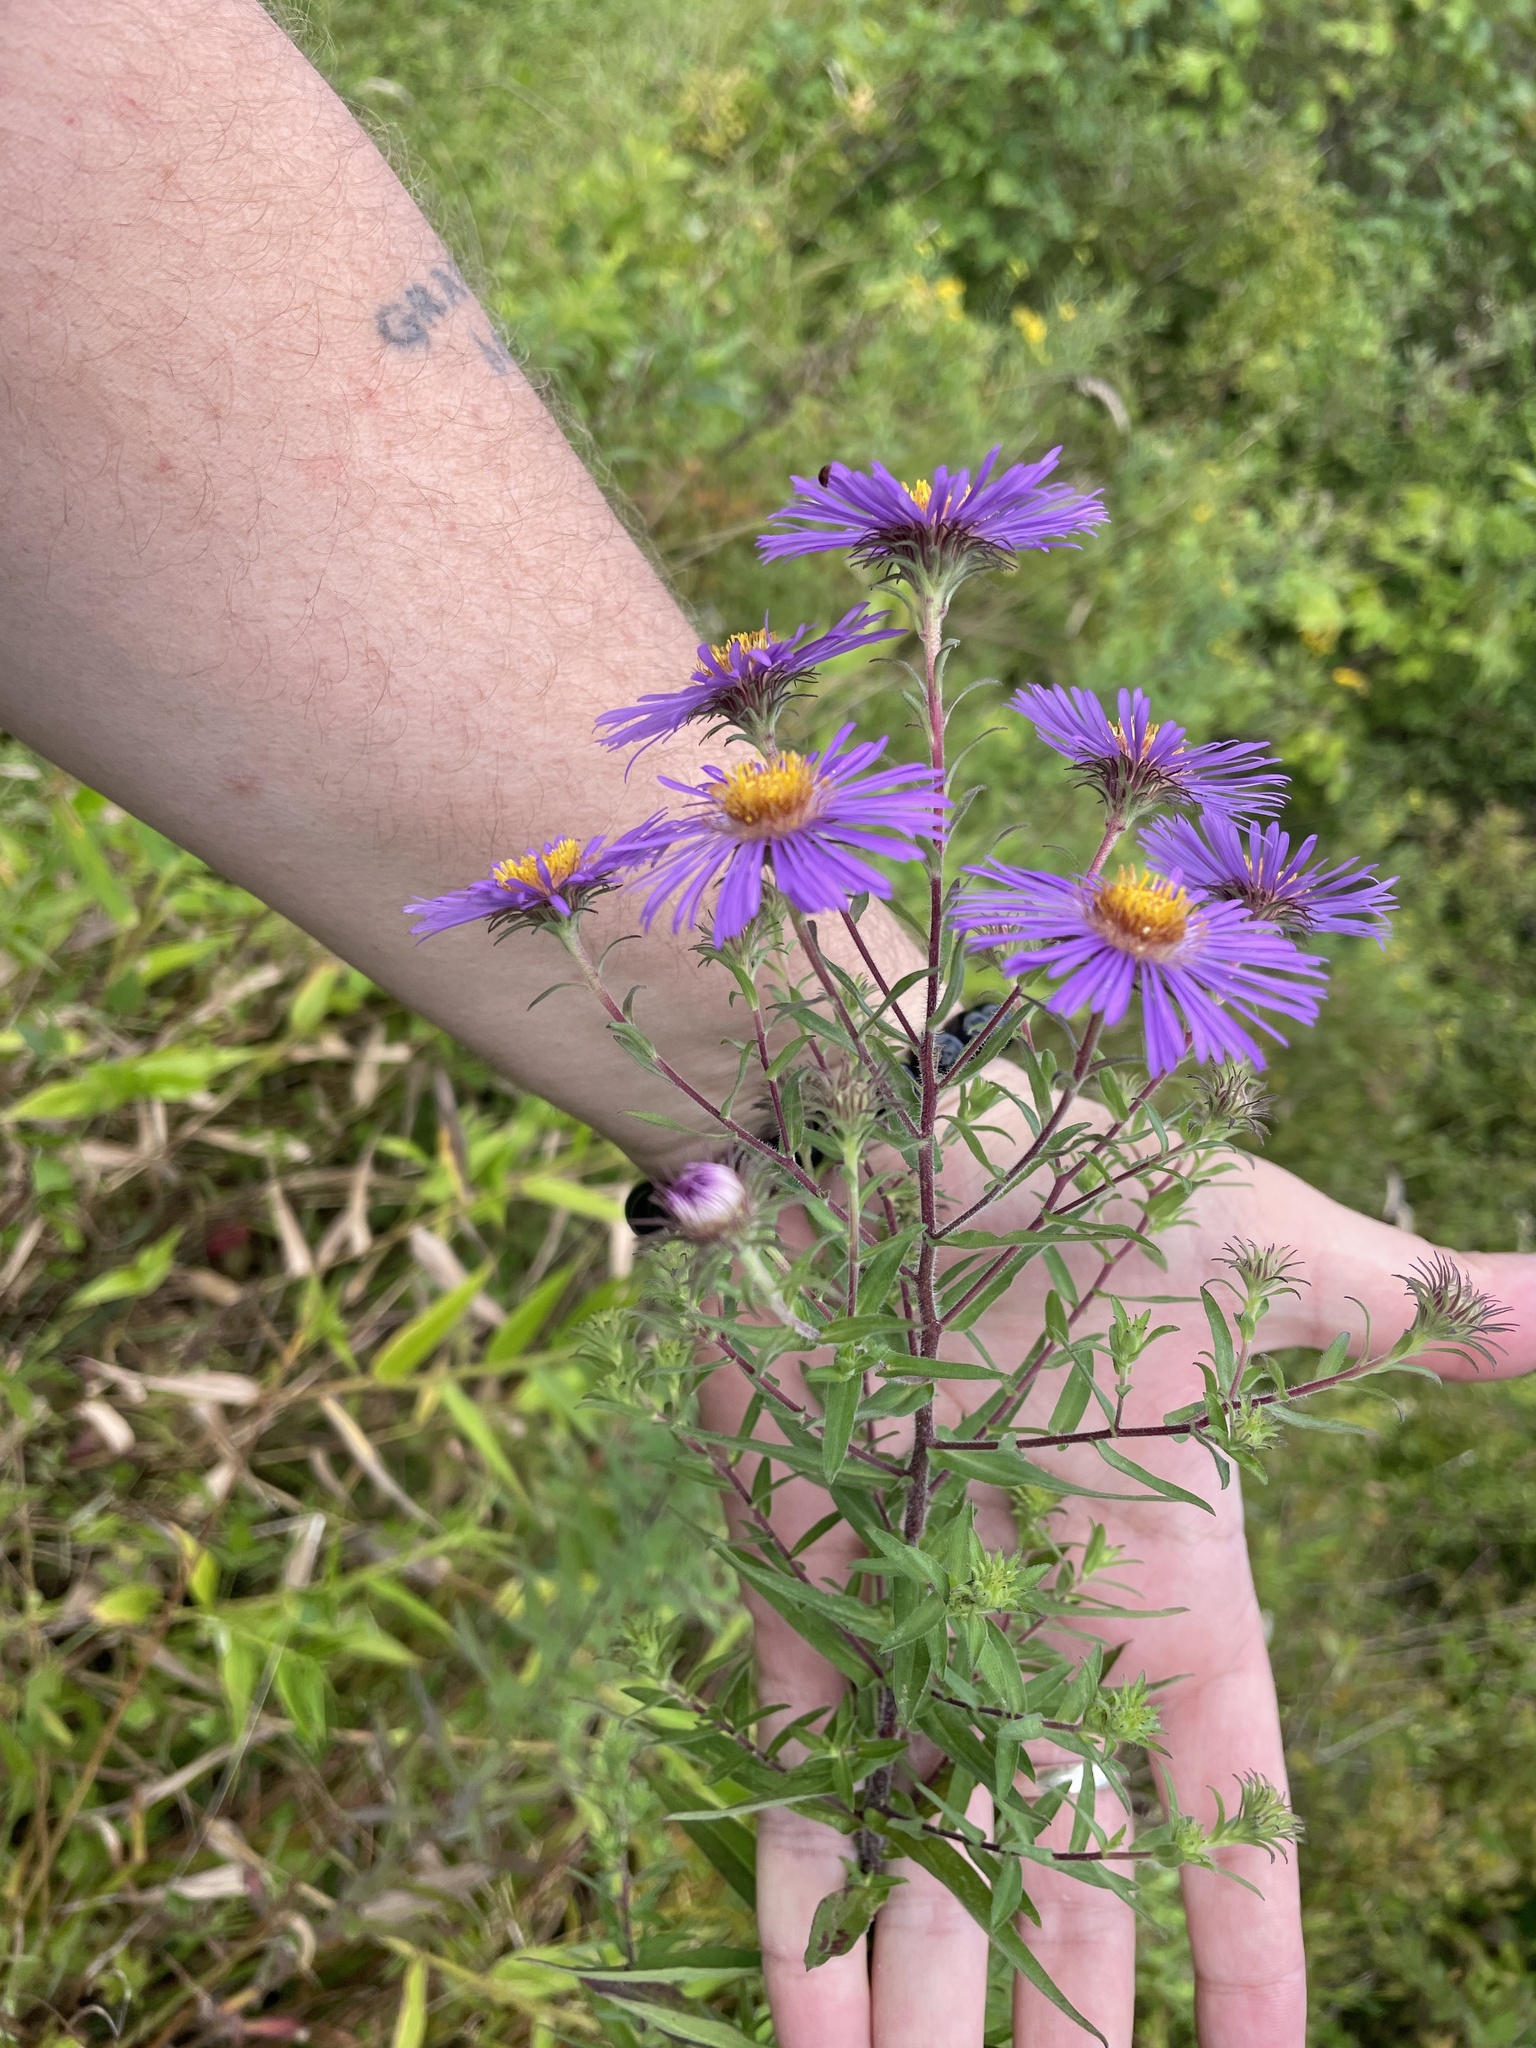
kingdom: Plantae
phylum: Tracheophyta
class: Magnoliopsida
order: Asterales
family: Asteraceae
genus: Symphyotrichum
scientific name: Symphyotrichum novae-angliae
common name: Michaelmas daisy
